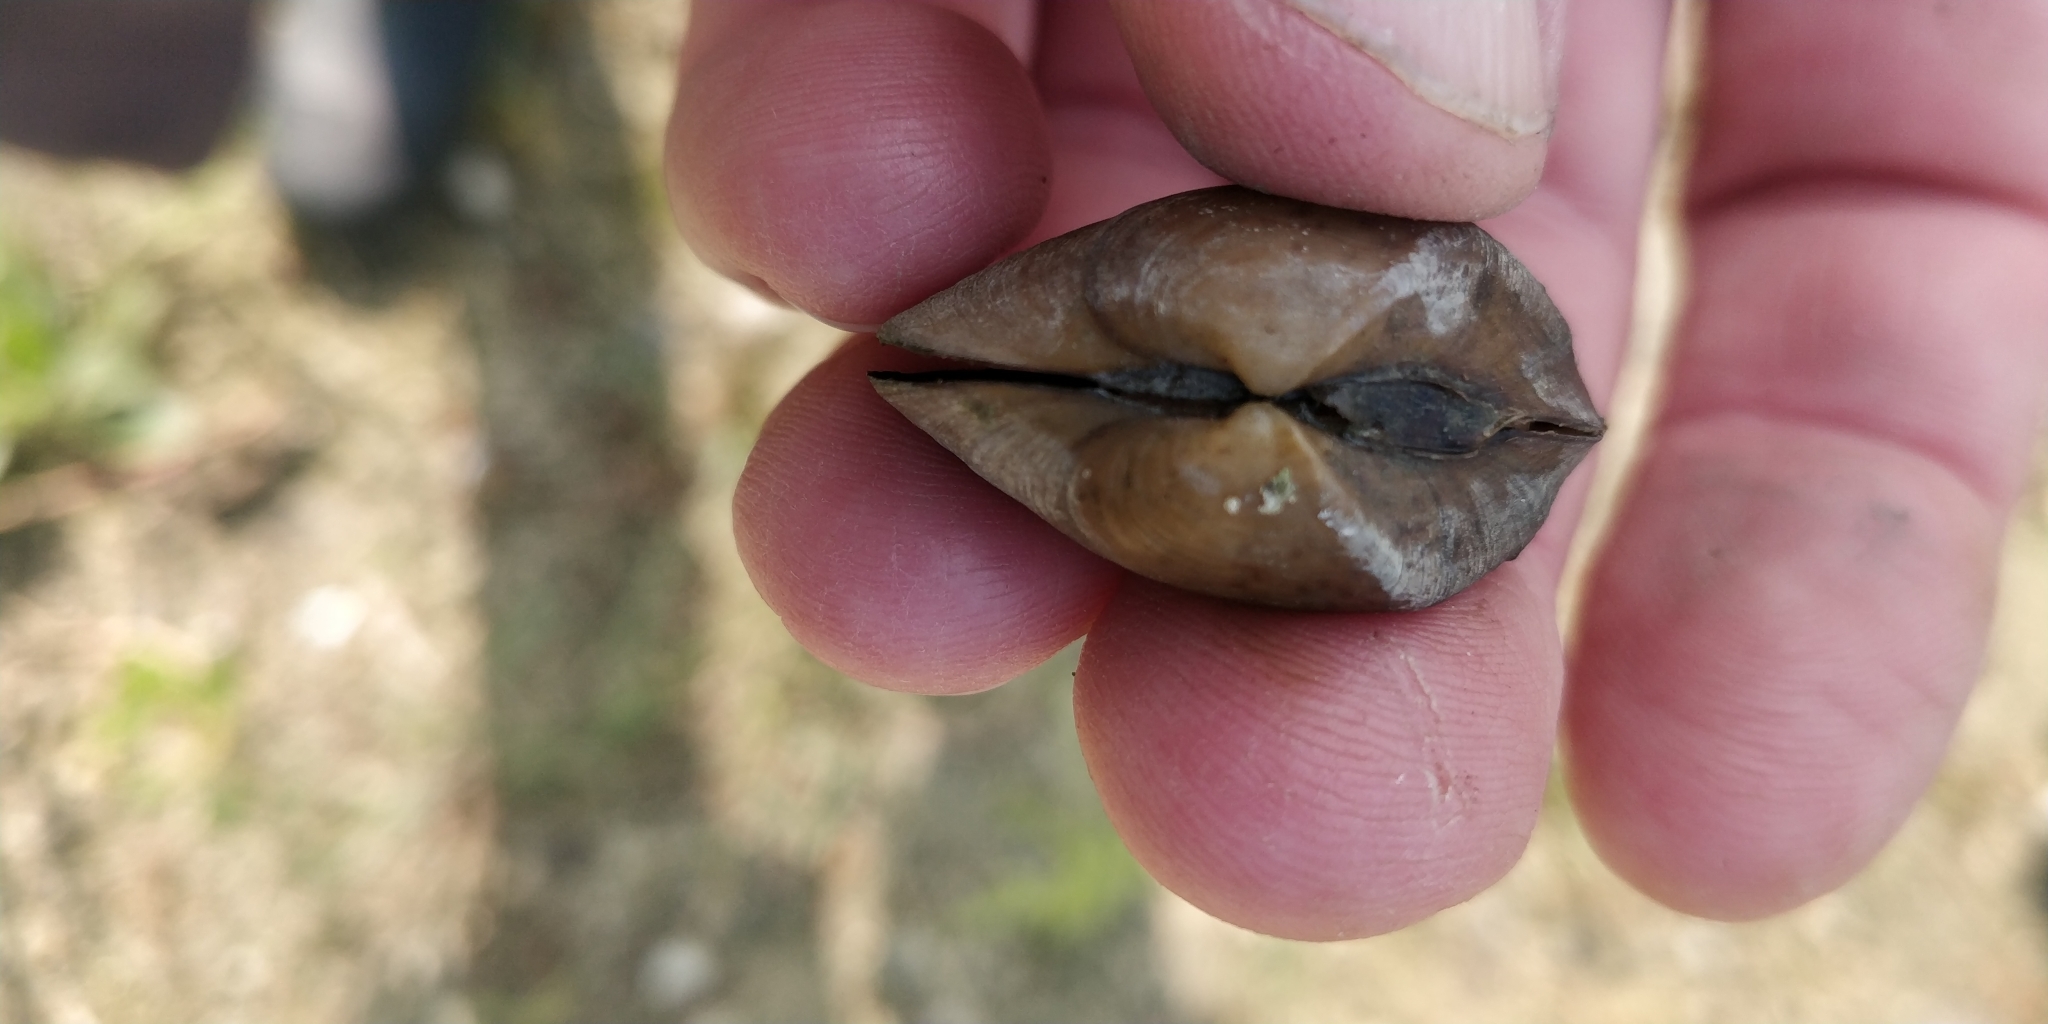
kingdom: Animalia
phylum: Mollusca
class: Bivalvia
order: Unionida
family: Unionidae
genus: Truncilla
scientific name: Truncilla truncata
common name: Deertoe
